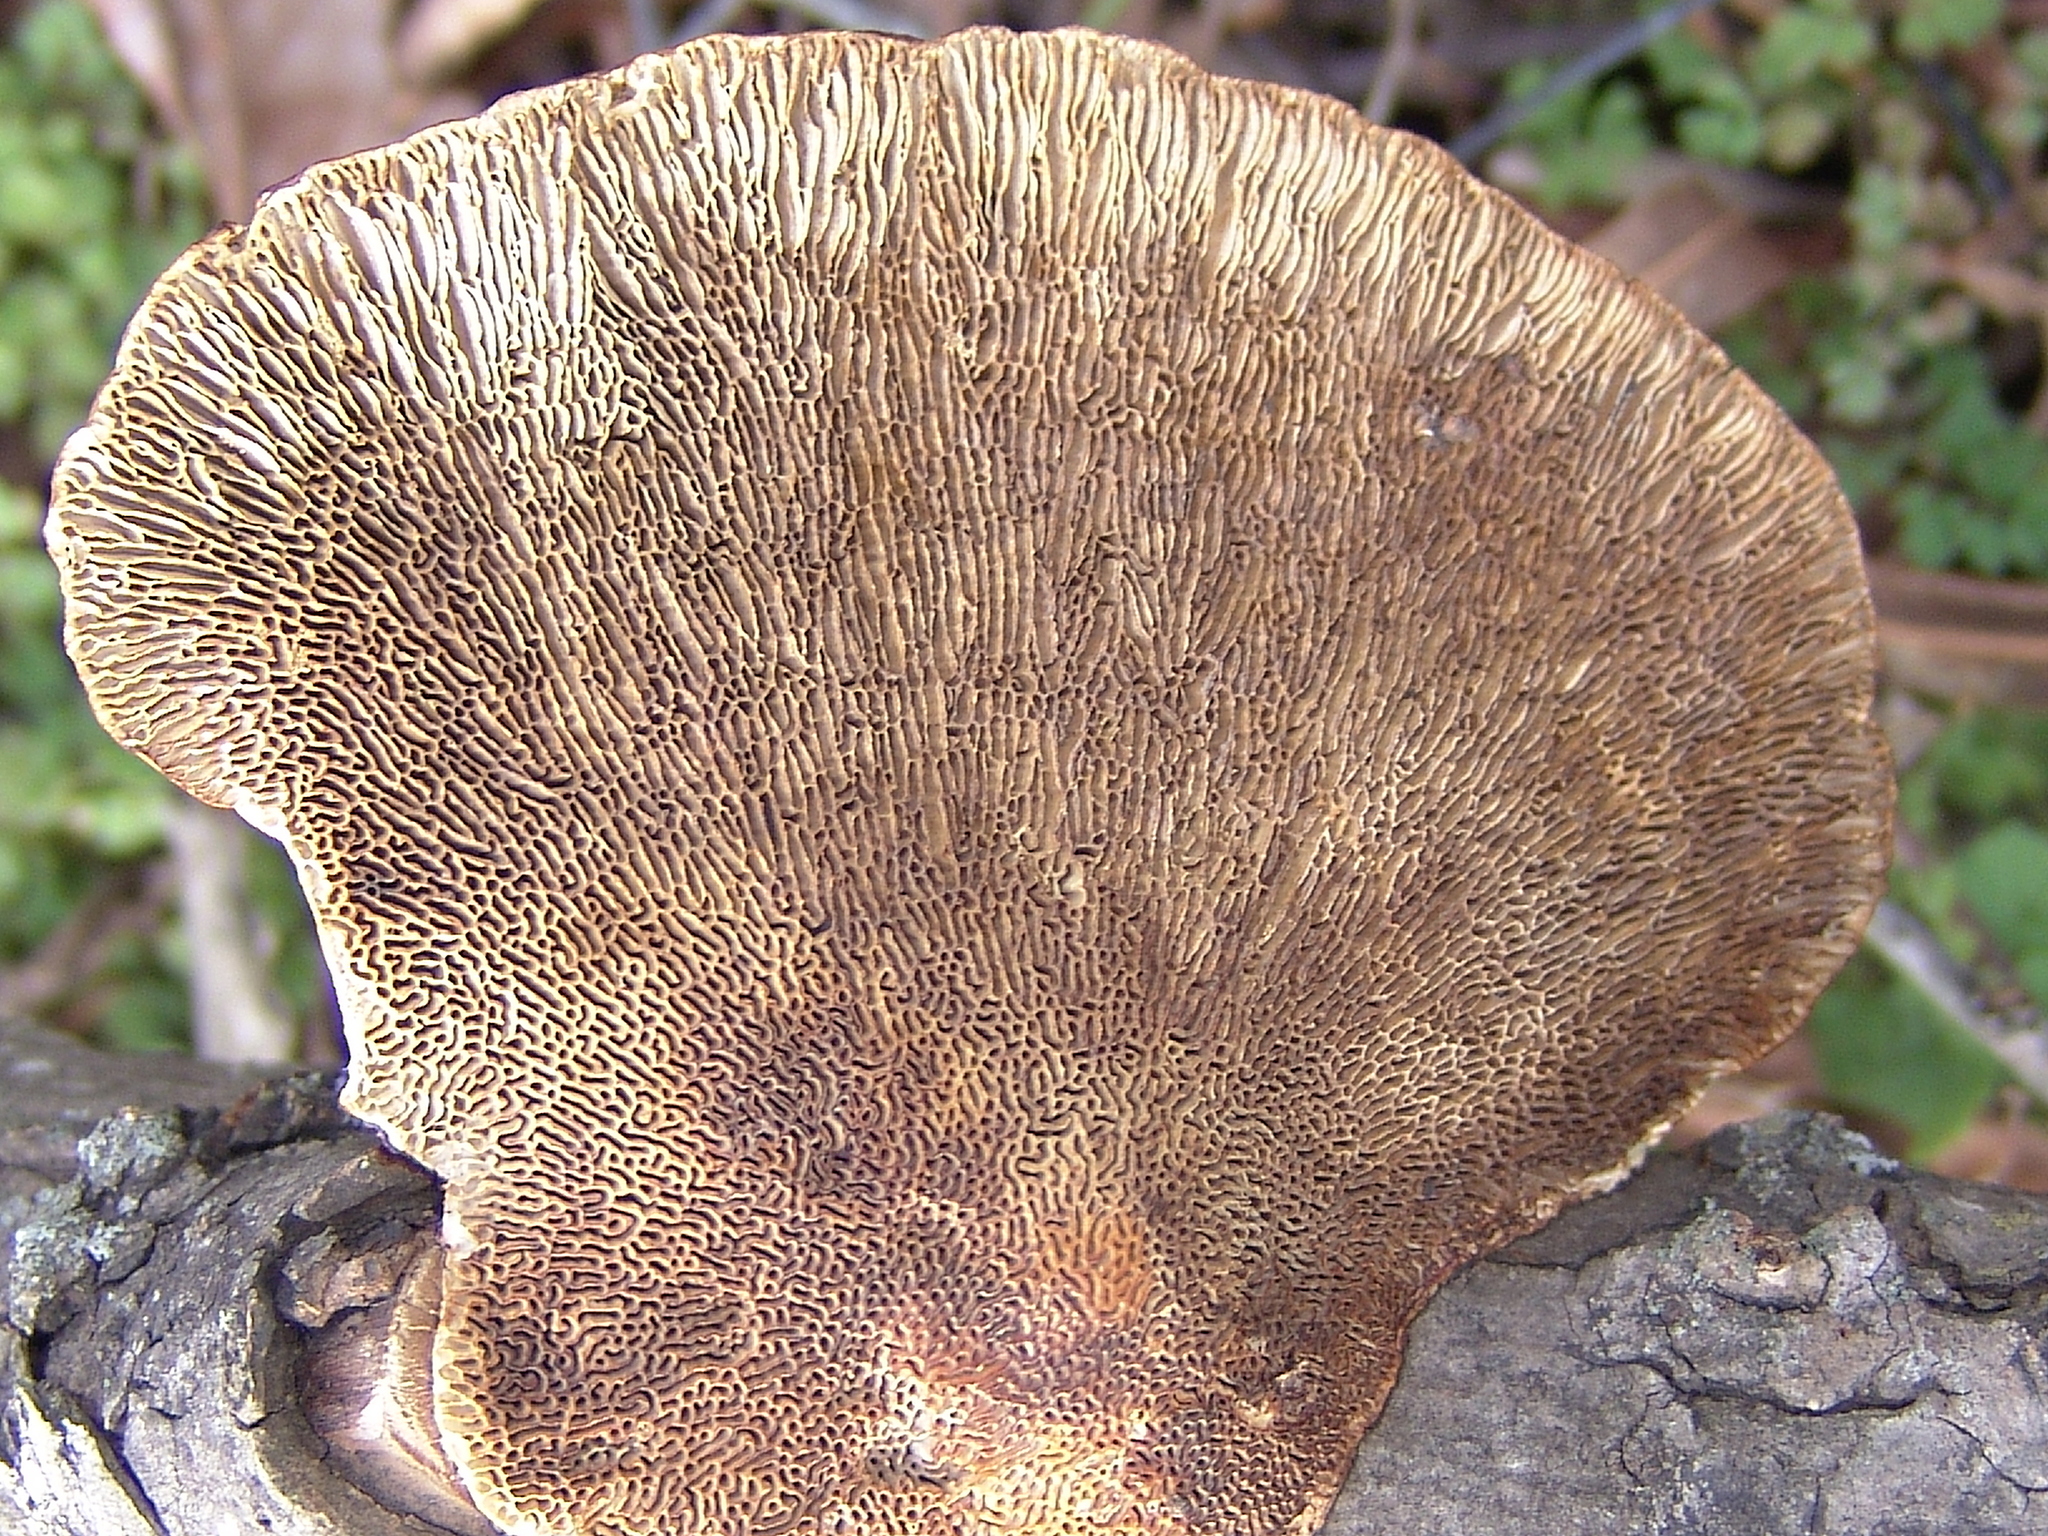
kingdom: Fungi
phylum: Basidiomycota
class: Agaricomycetes
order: Polyporales
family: Polyporaceae
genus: Daedaleopsis
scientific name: Daedaleopsis confragosa
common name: Blushing bracket
